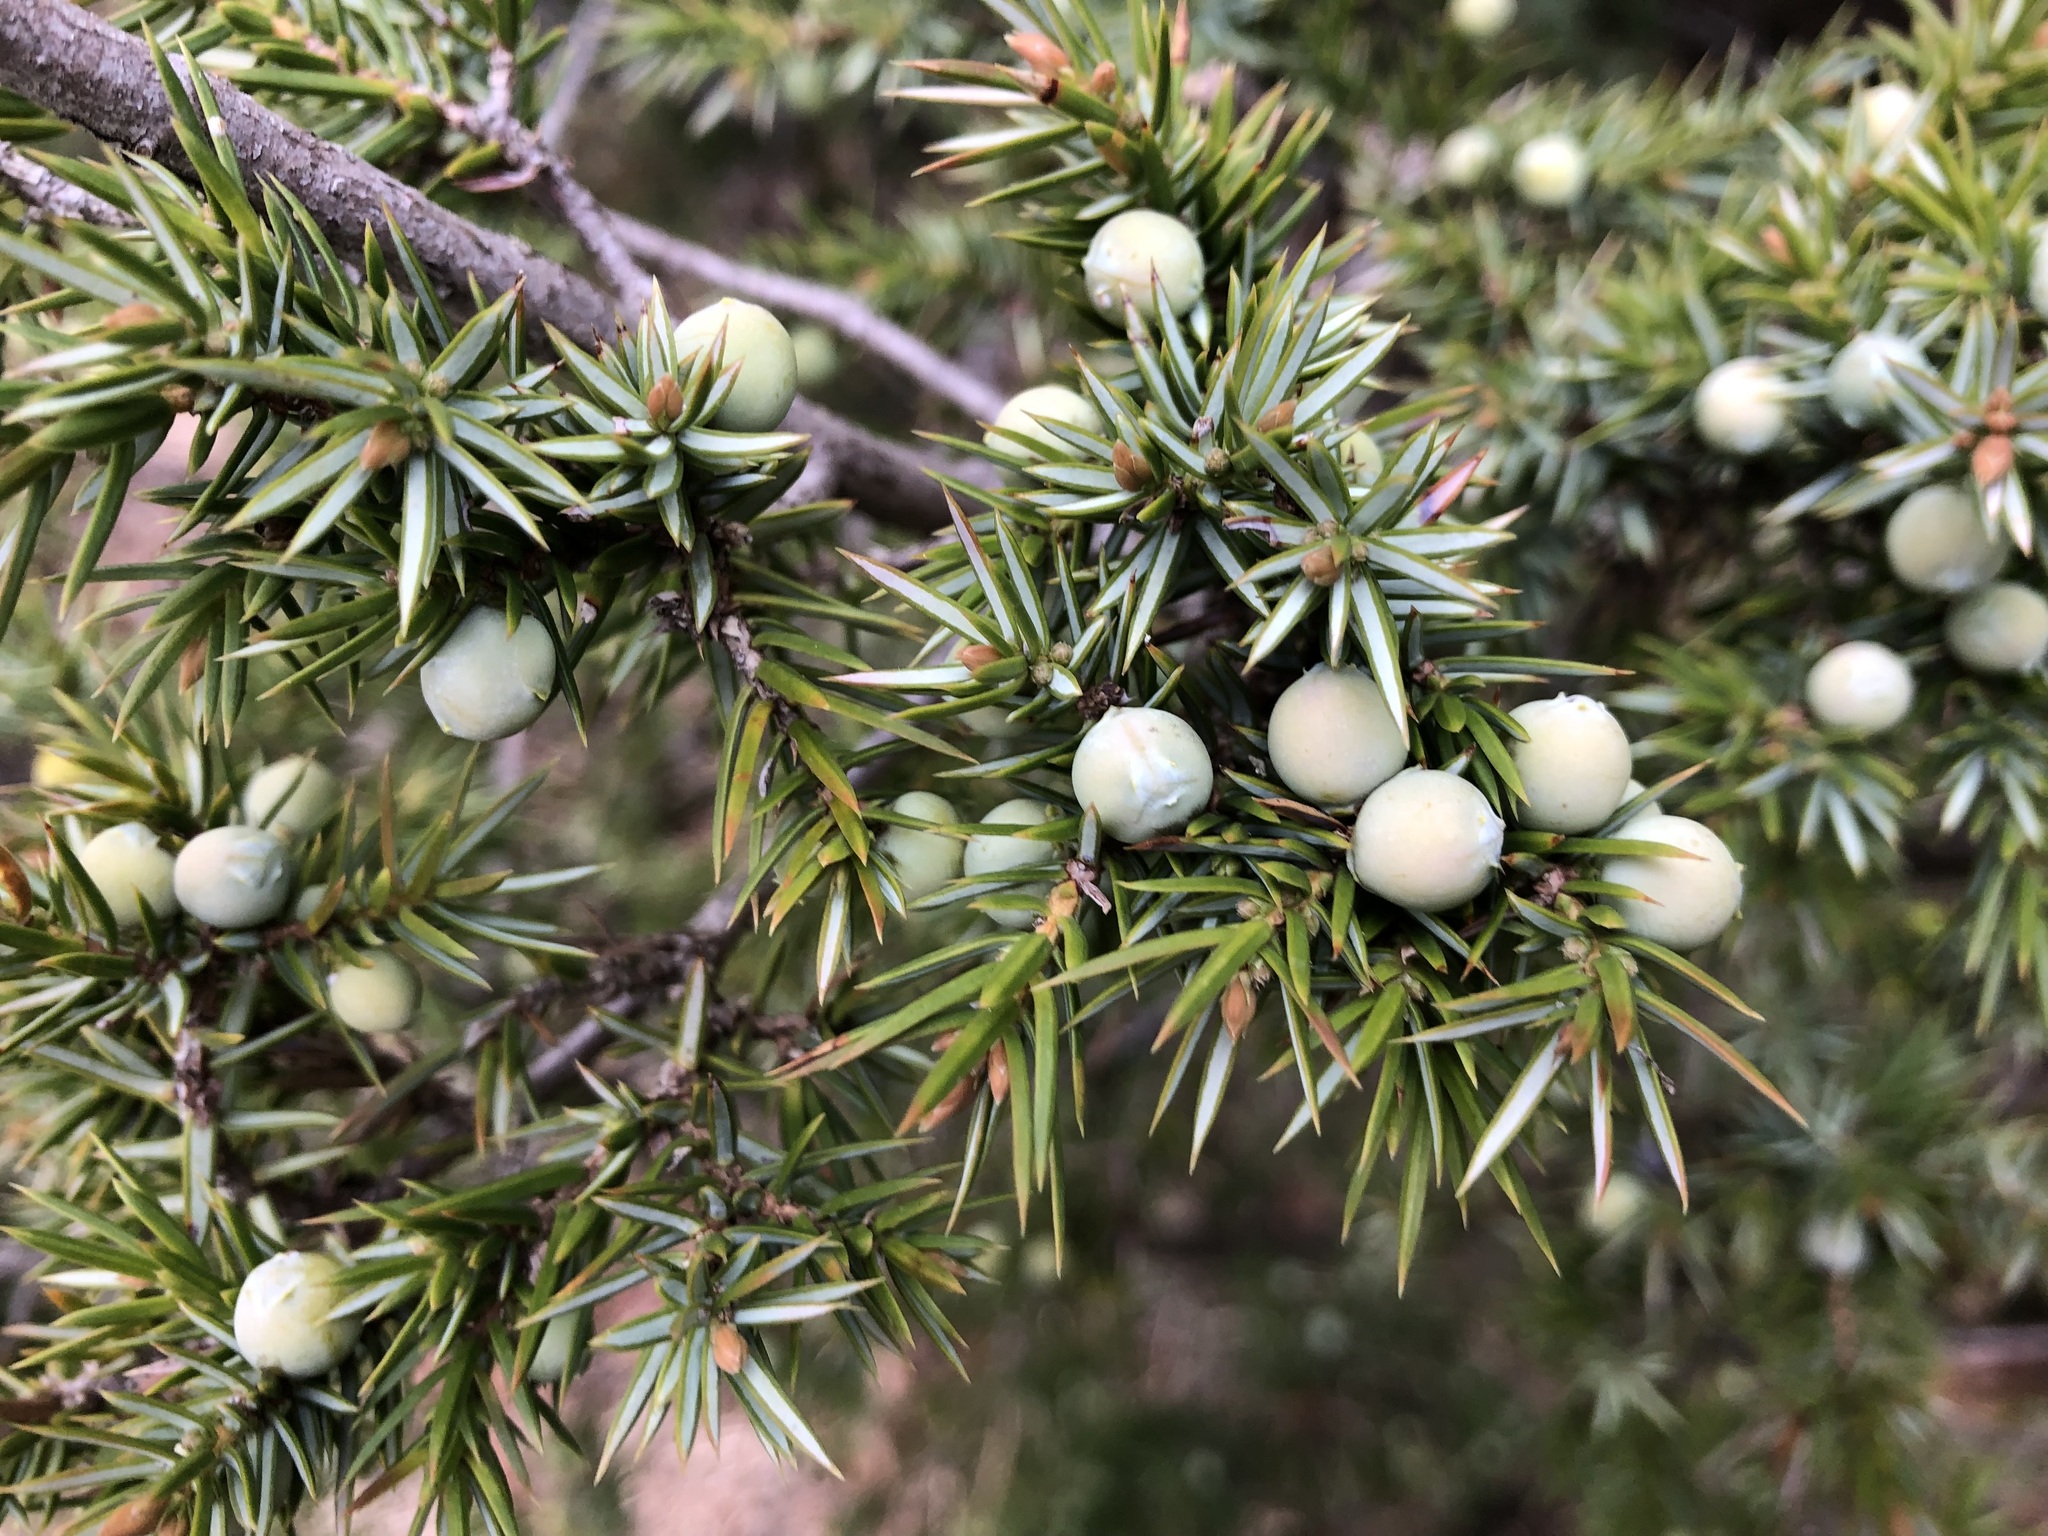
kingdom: Plantae
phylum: Tracheophyta
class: Pinopsida
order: Pinales
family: Cupressaceae
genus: Juniperus
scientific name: Juniperus communis
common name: Common juniper
